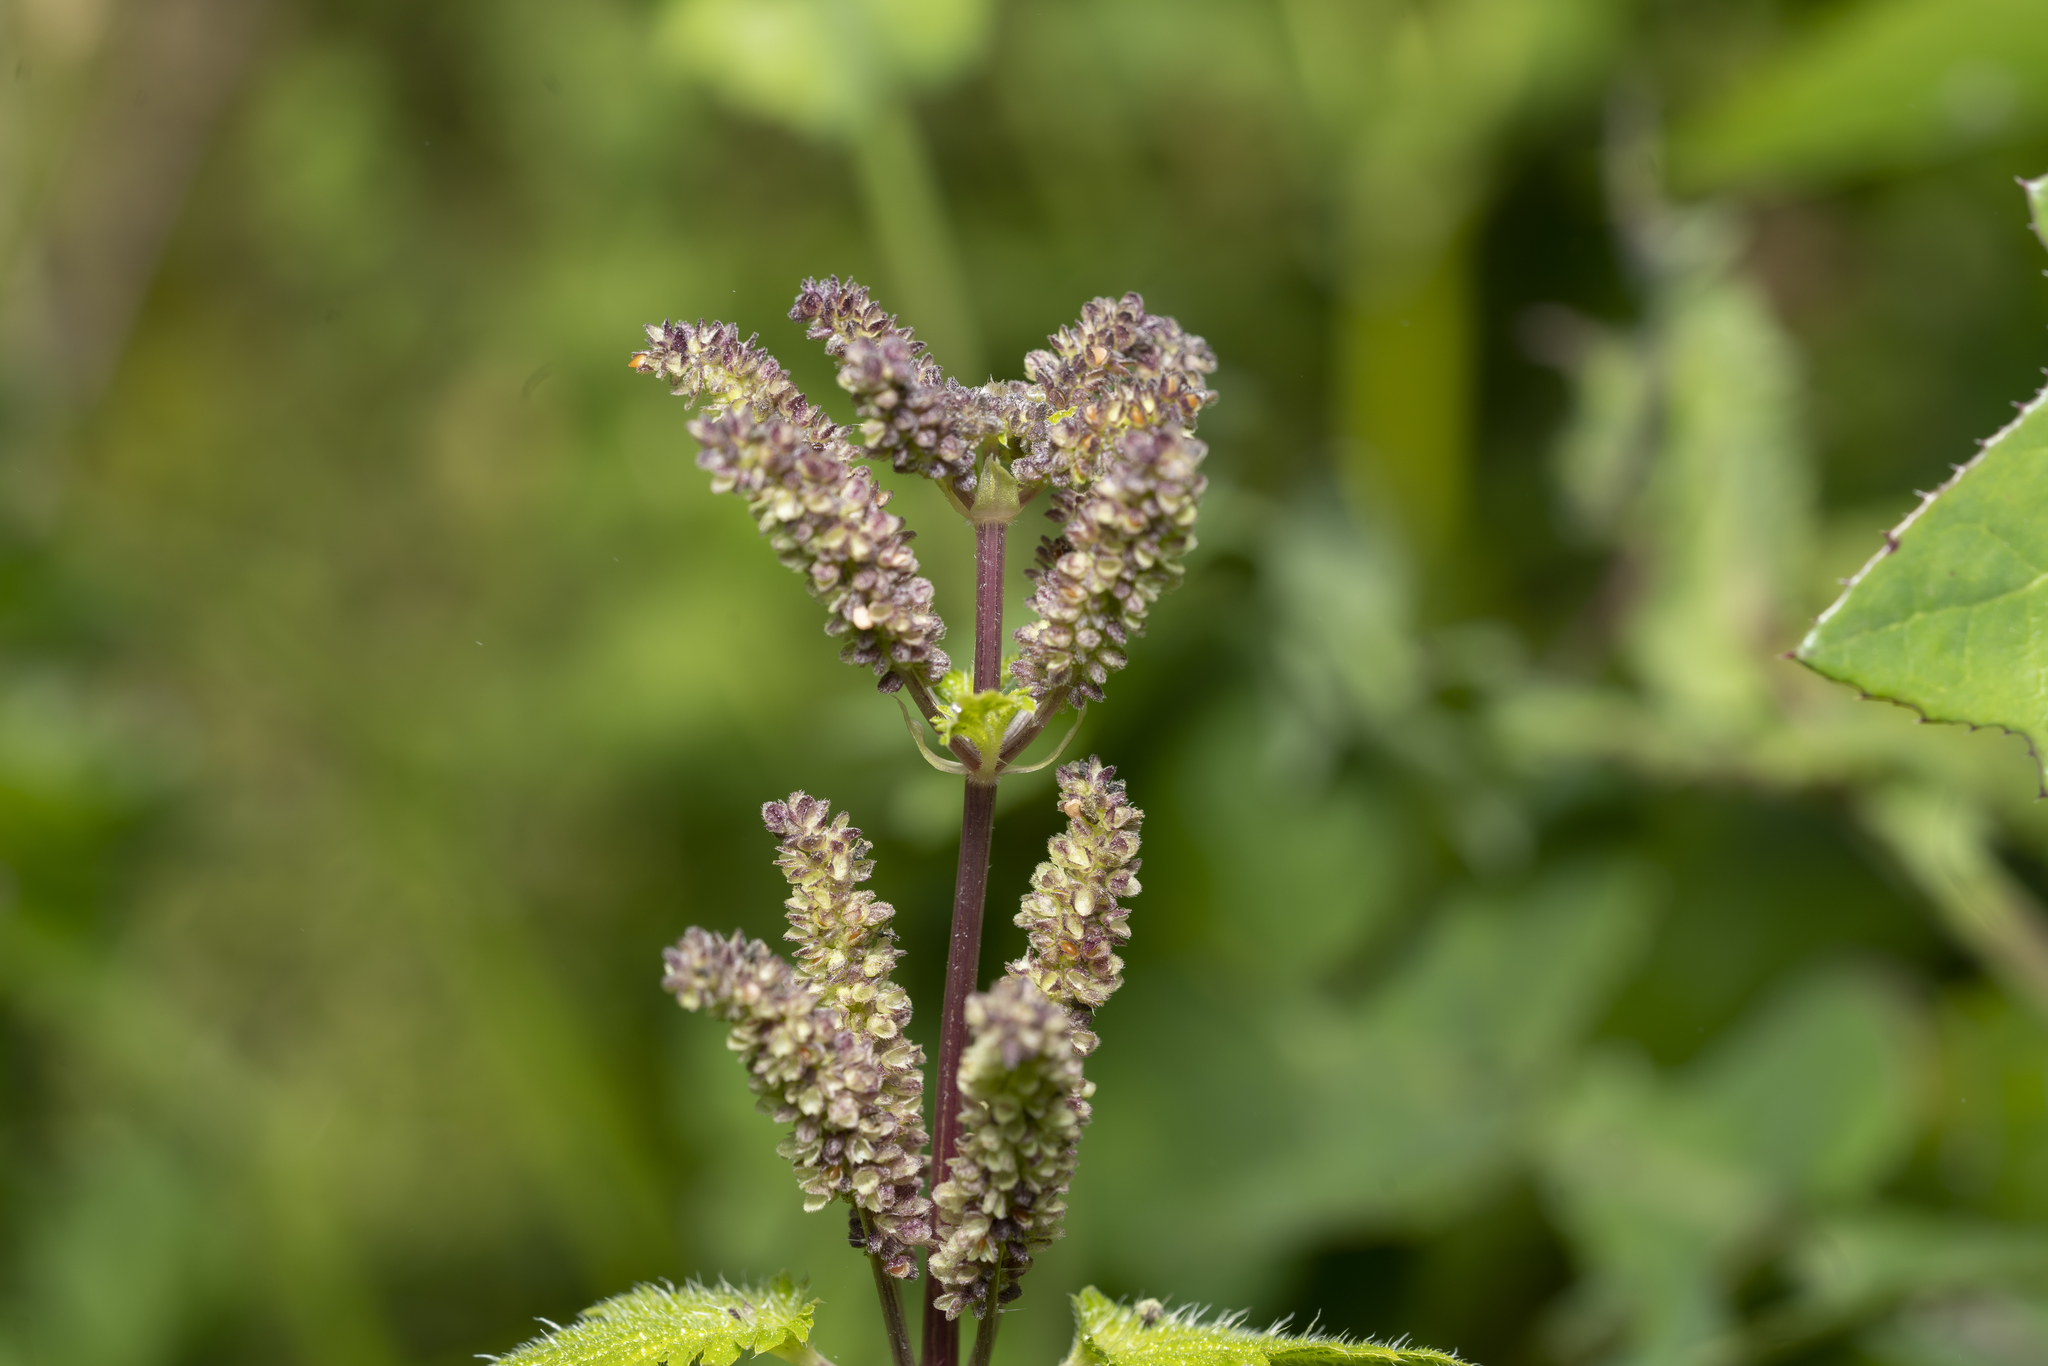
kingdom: Plantae
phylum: Tracheophyta
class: Magnoliopsida
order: Rosales
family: Urticaceae
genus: Urtica
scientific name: Urtica membranacea
